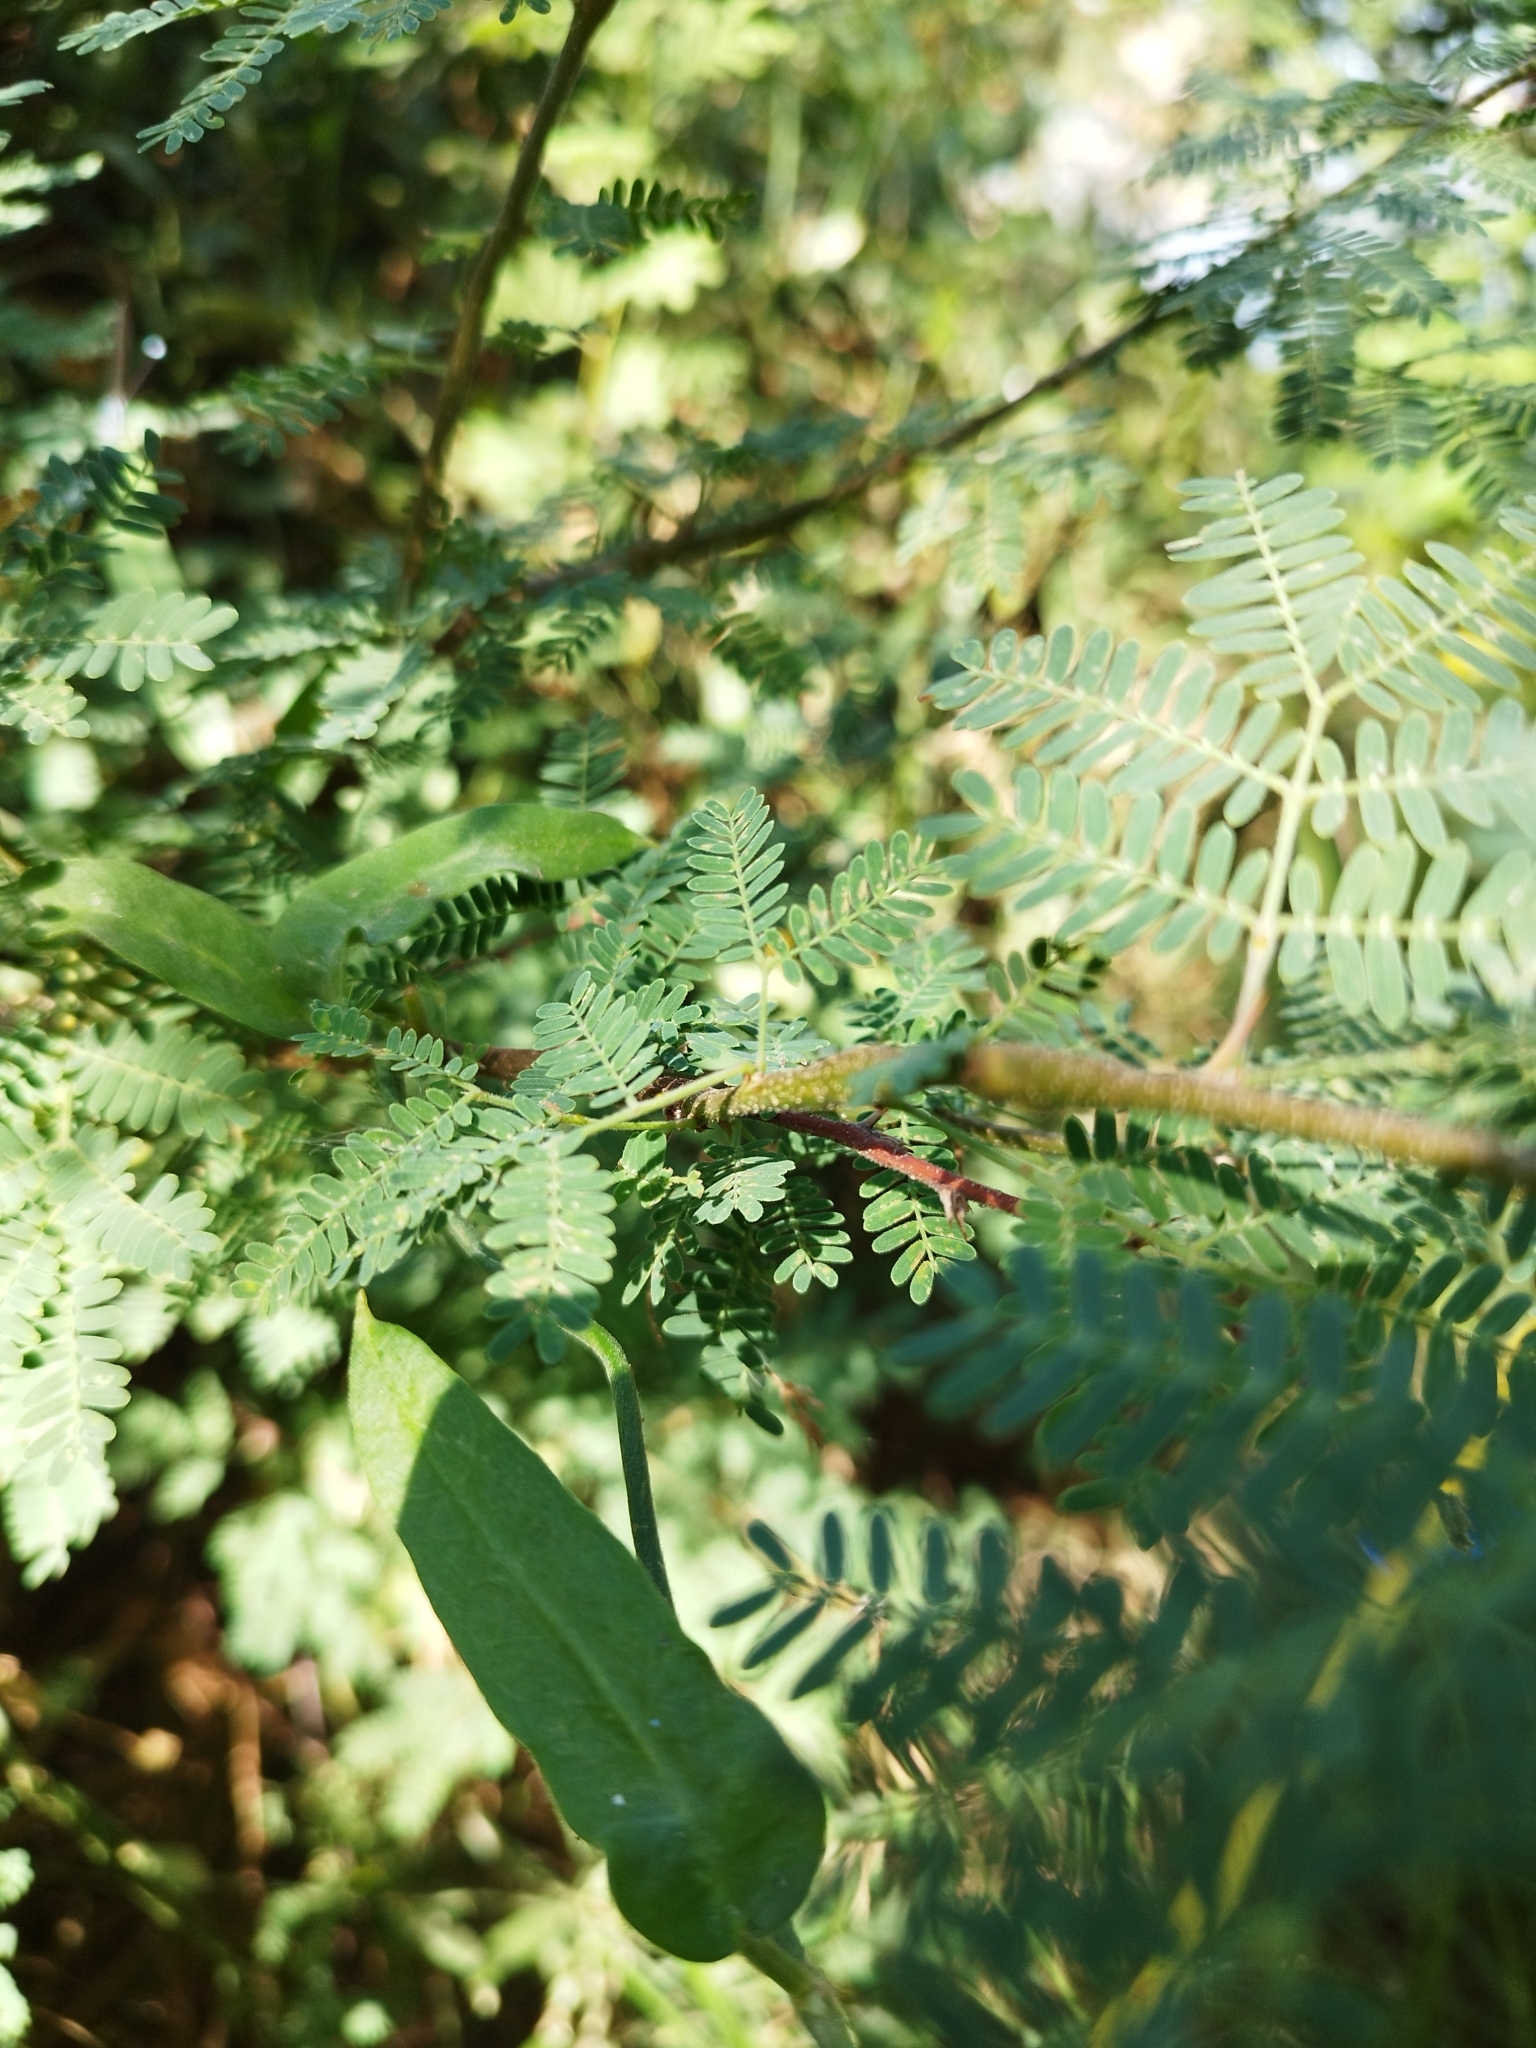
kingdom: Plantae
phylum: Tracheophyta
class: Magnoliopsida
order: Fabales
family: Fabaceae
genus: Leucaena
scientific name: Leucaena leucocephala
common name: White leadtree
